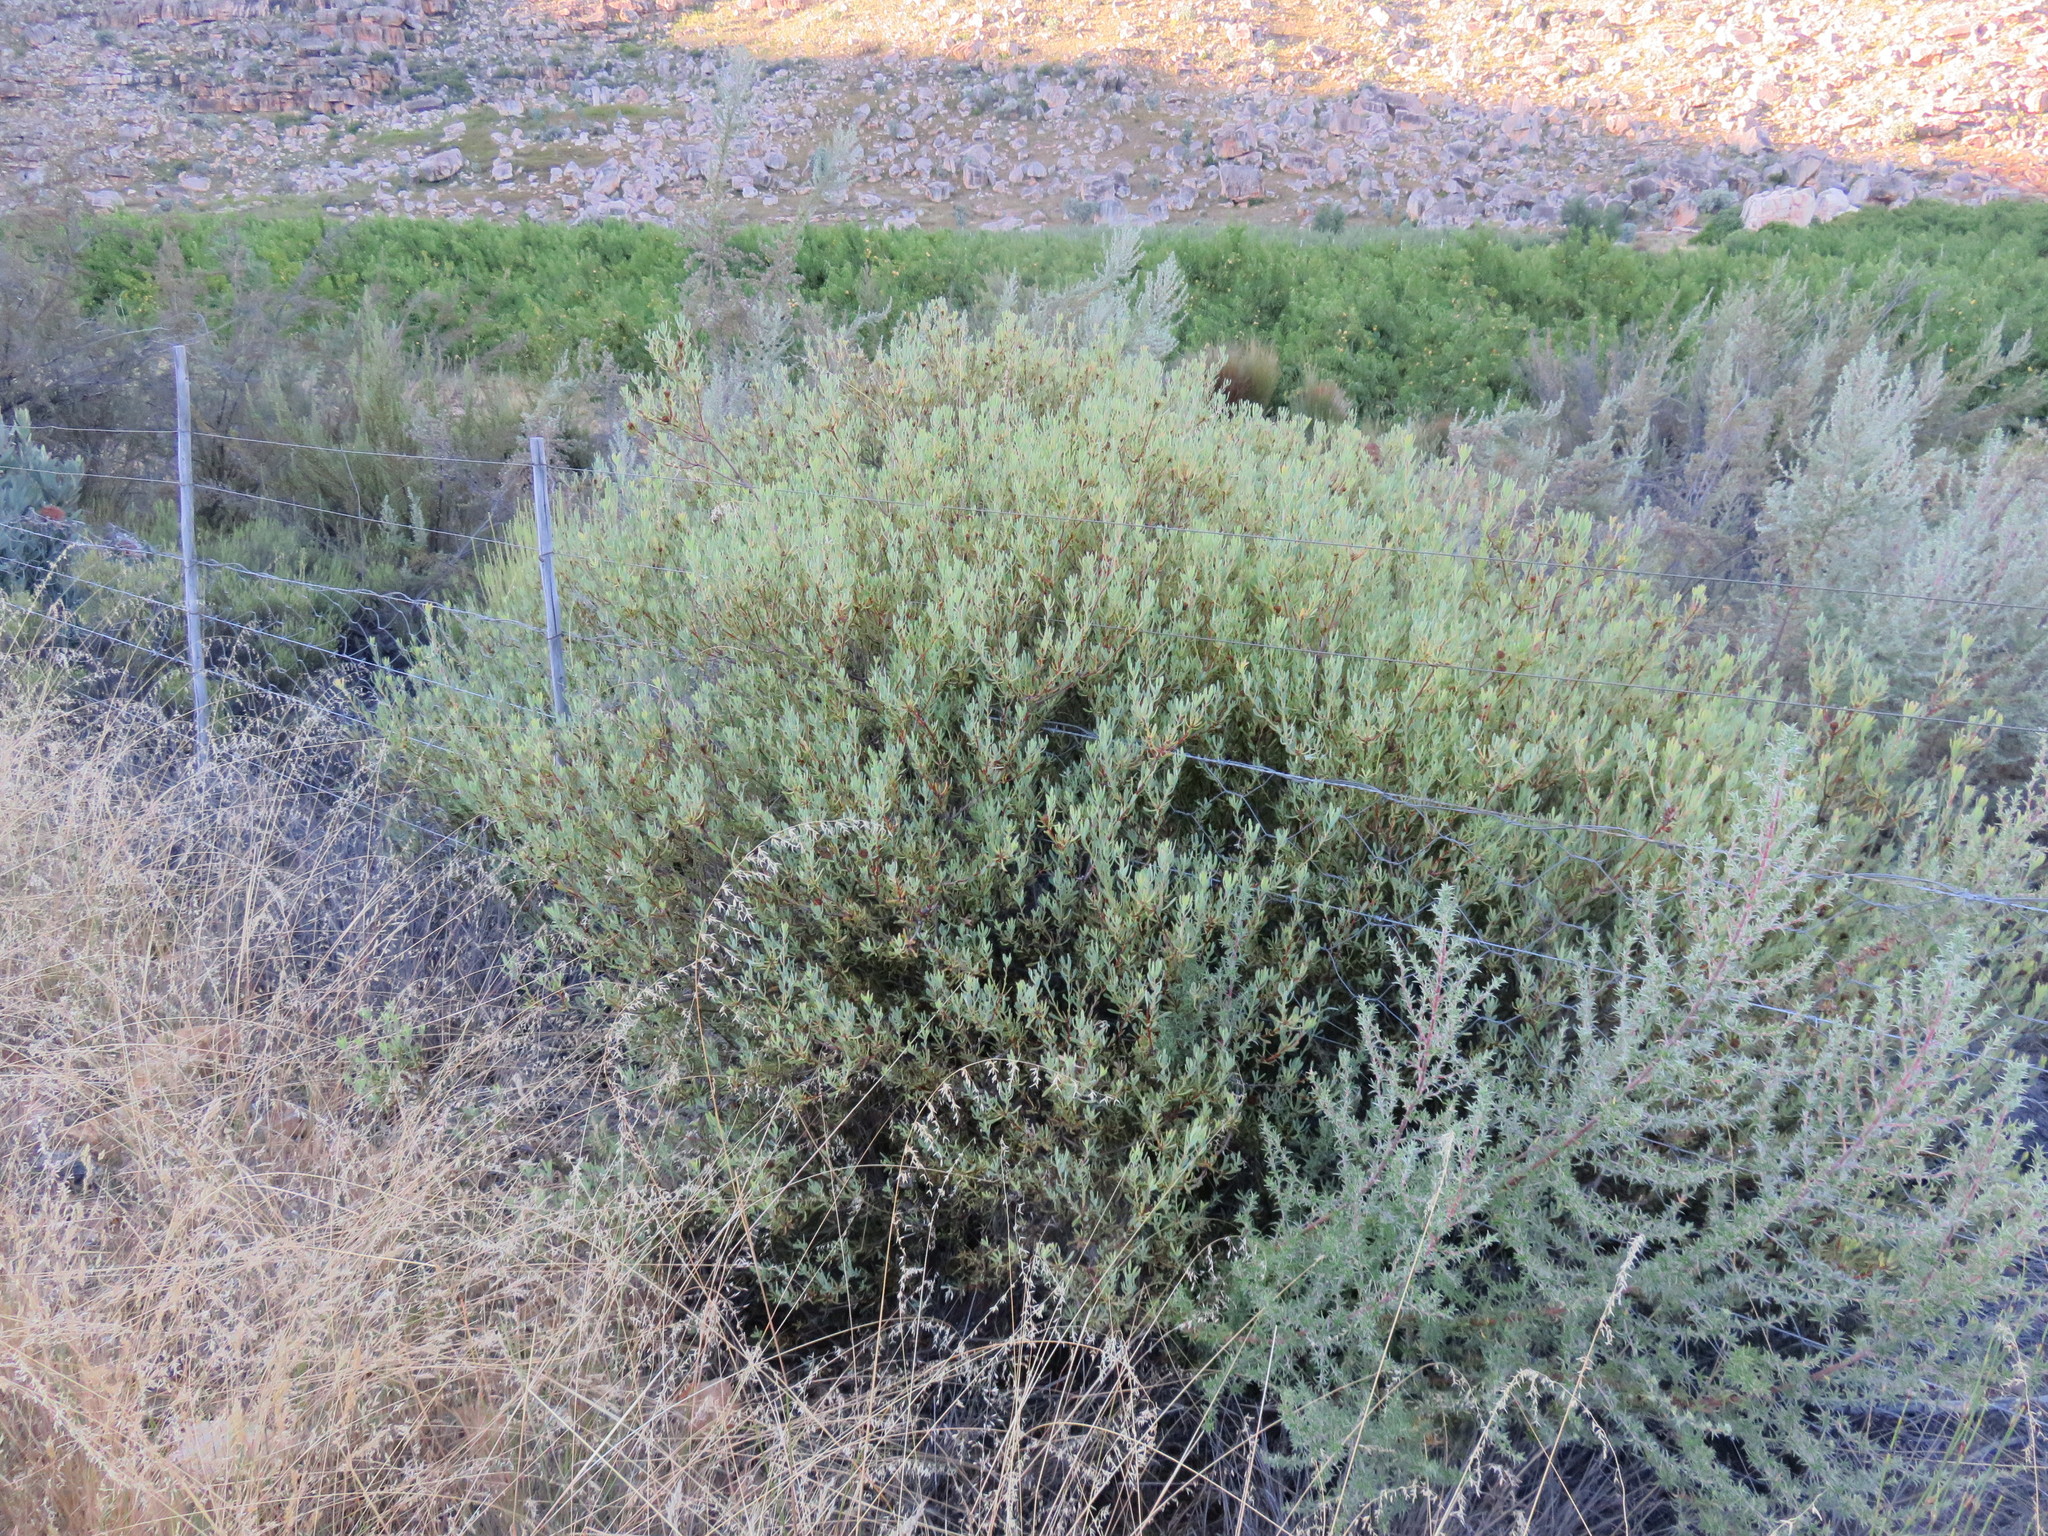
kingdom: Plantae
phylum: Tracheophyta
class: Magnoliopsida
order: Proteales
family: Proteaceae
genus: Leucadendron
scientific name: Leucadendron glaberrimum
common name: Common oily conebush
